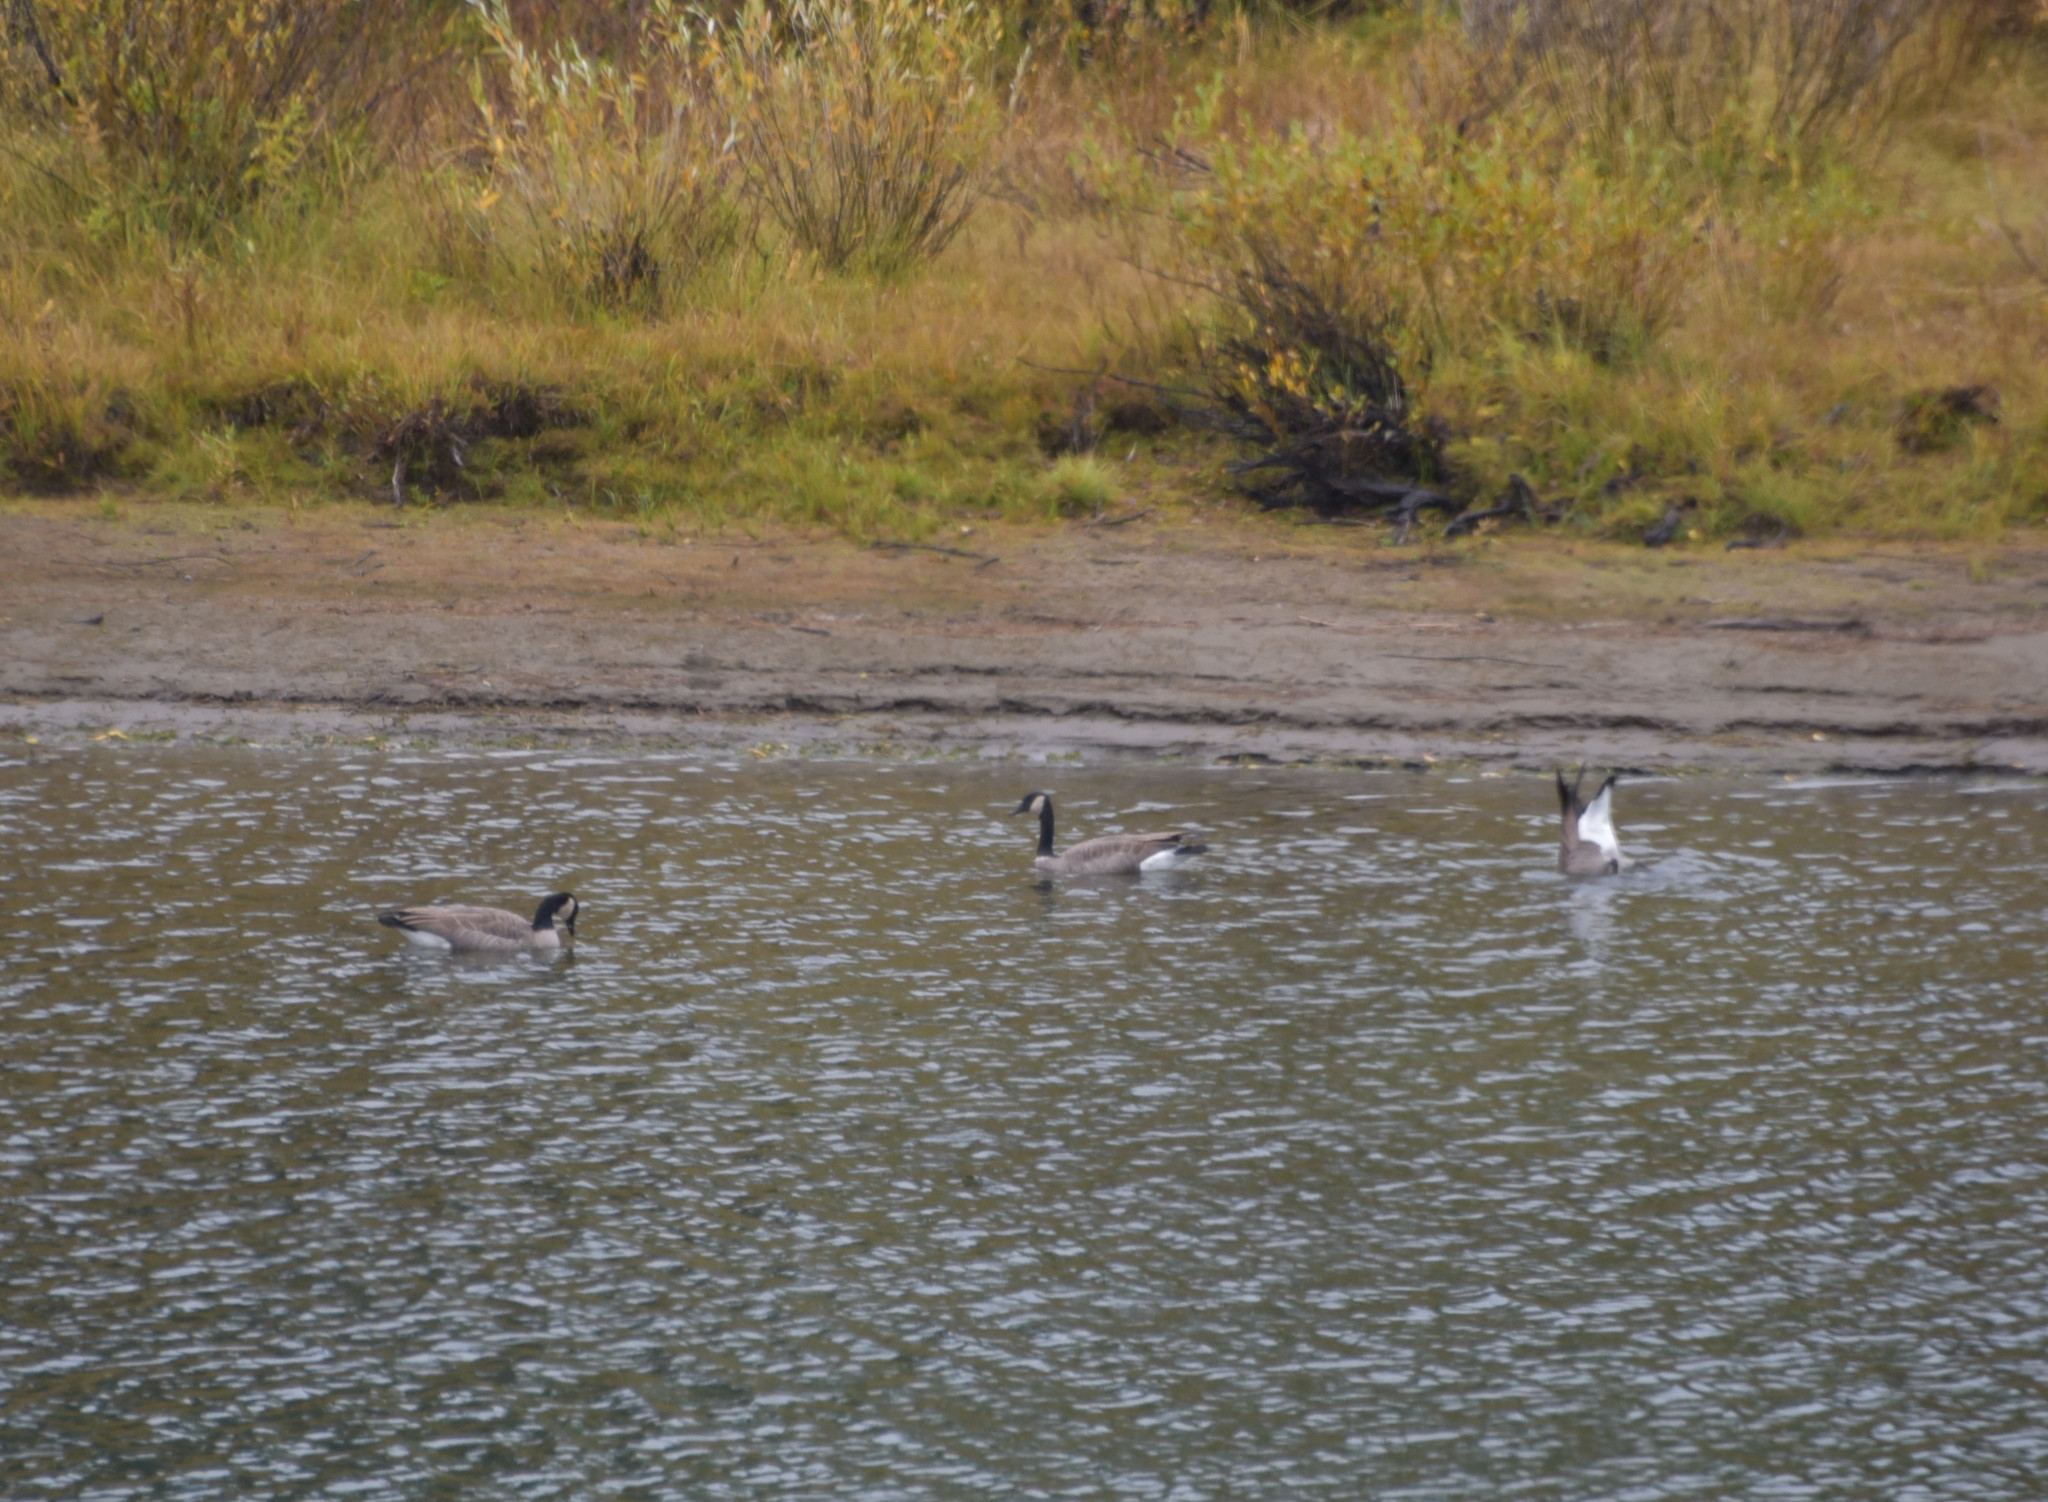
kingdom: Animalia
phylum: Chordata
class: Aves
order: Anseriformes
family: Anatidae
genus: Branta
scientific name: Branta canadensis
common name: Canada goose
